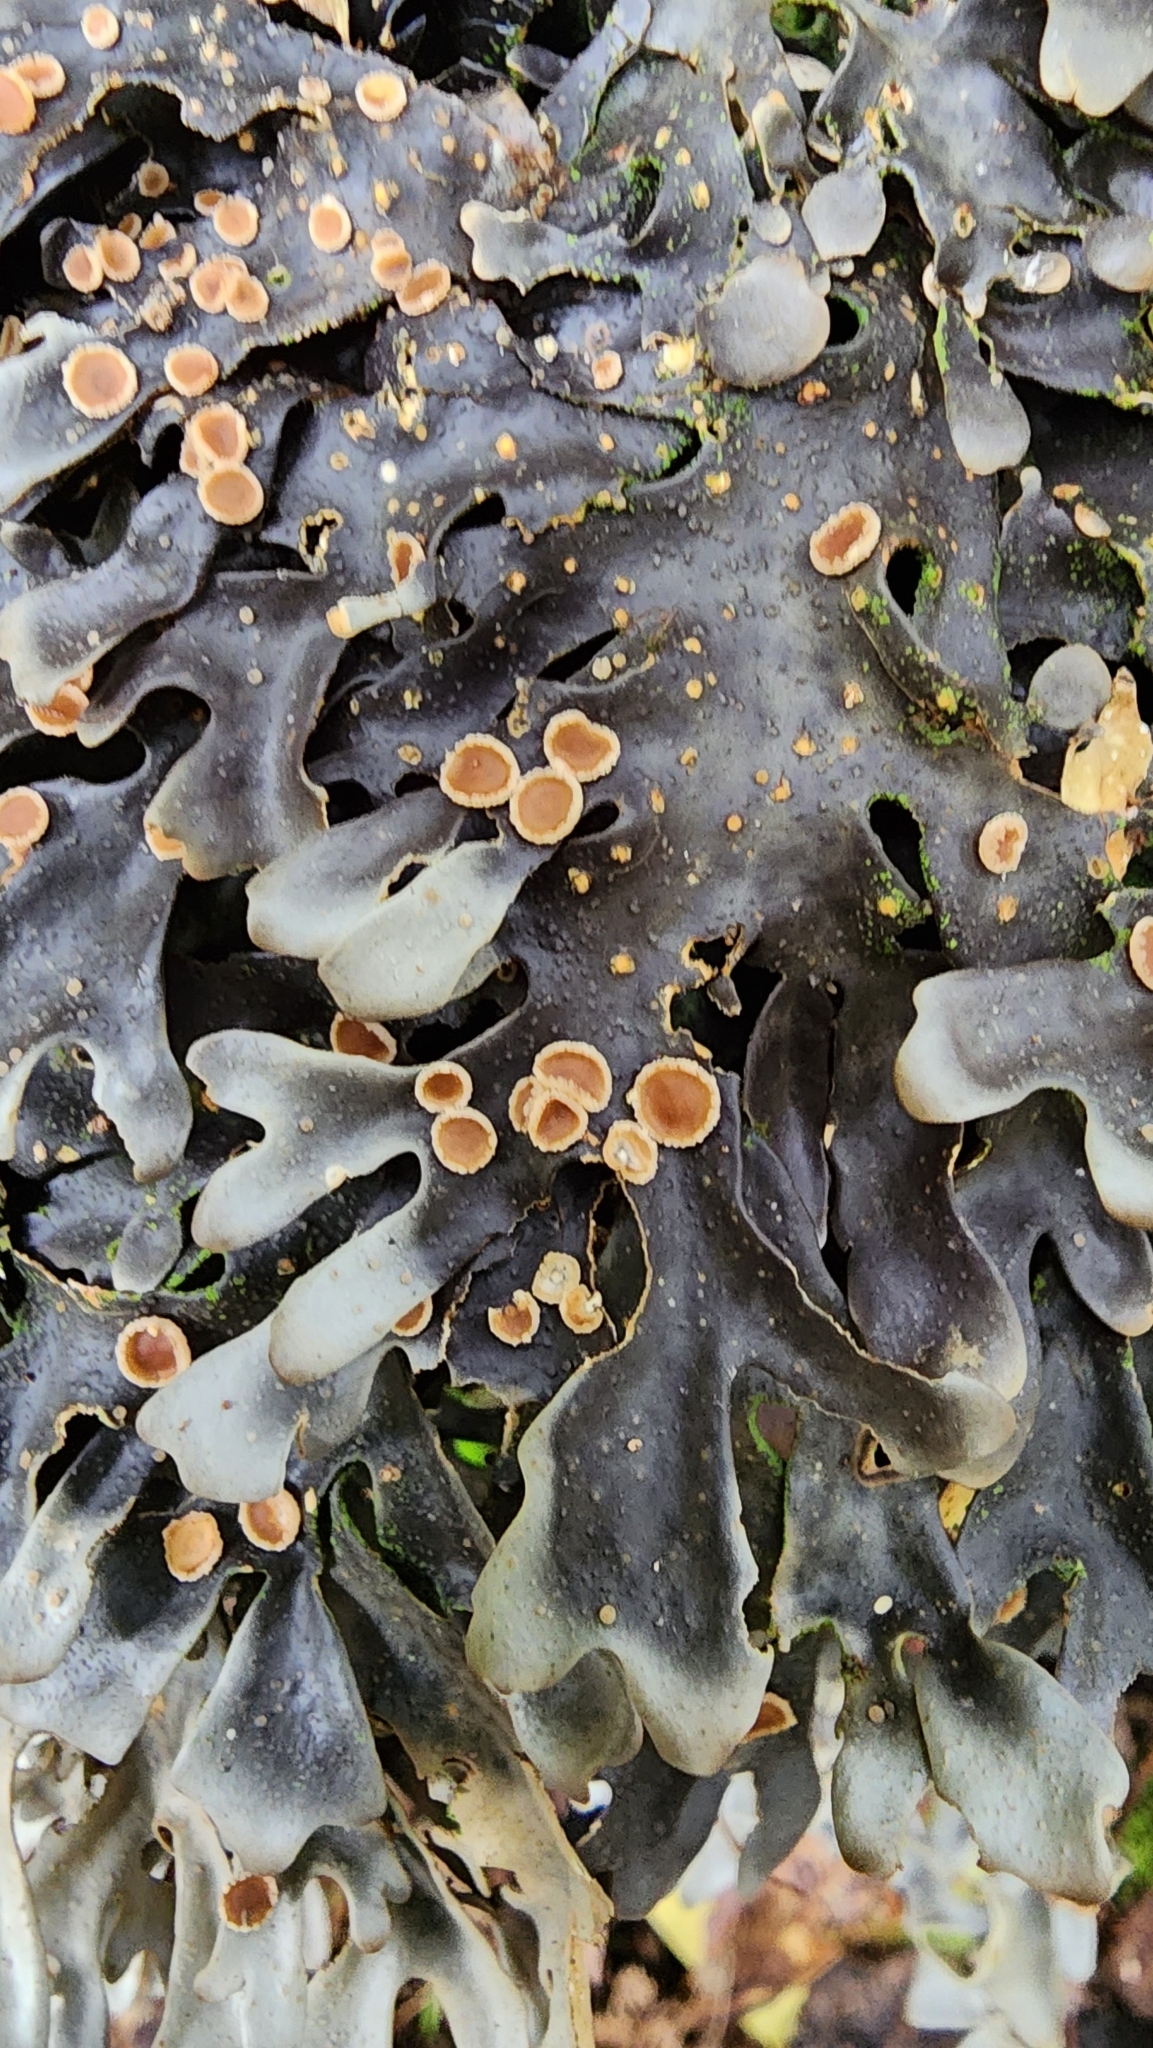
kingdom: Fungi
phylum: Ascomycota
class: Lecanoromycetes
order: Peltigerales
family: Lobariaceae
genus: Pseudocyphellaria
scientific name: Pseudocyphellaria dissimilis
